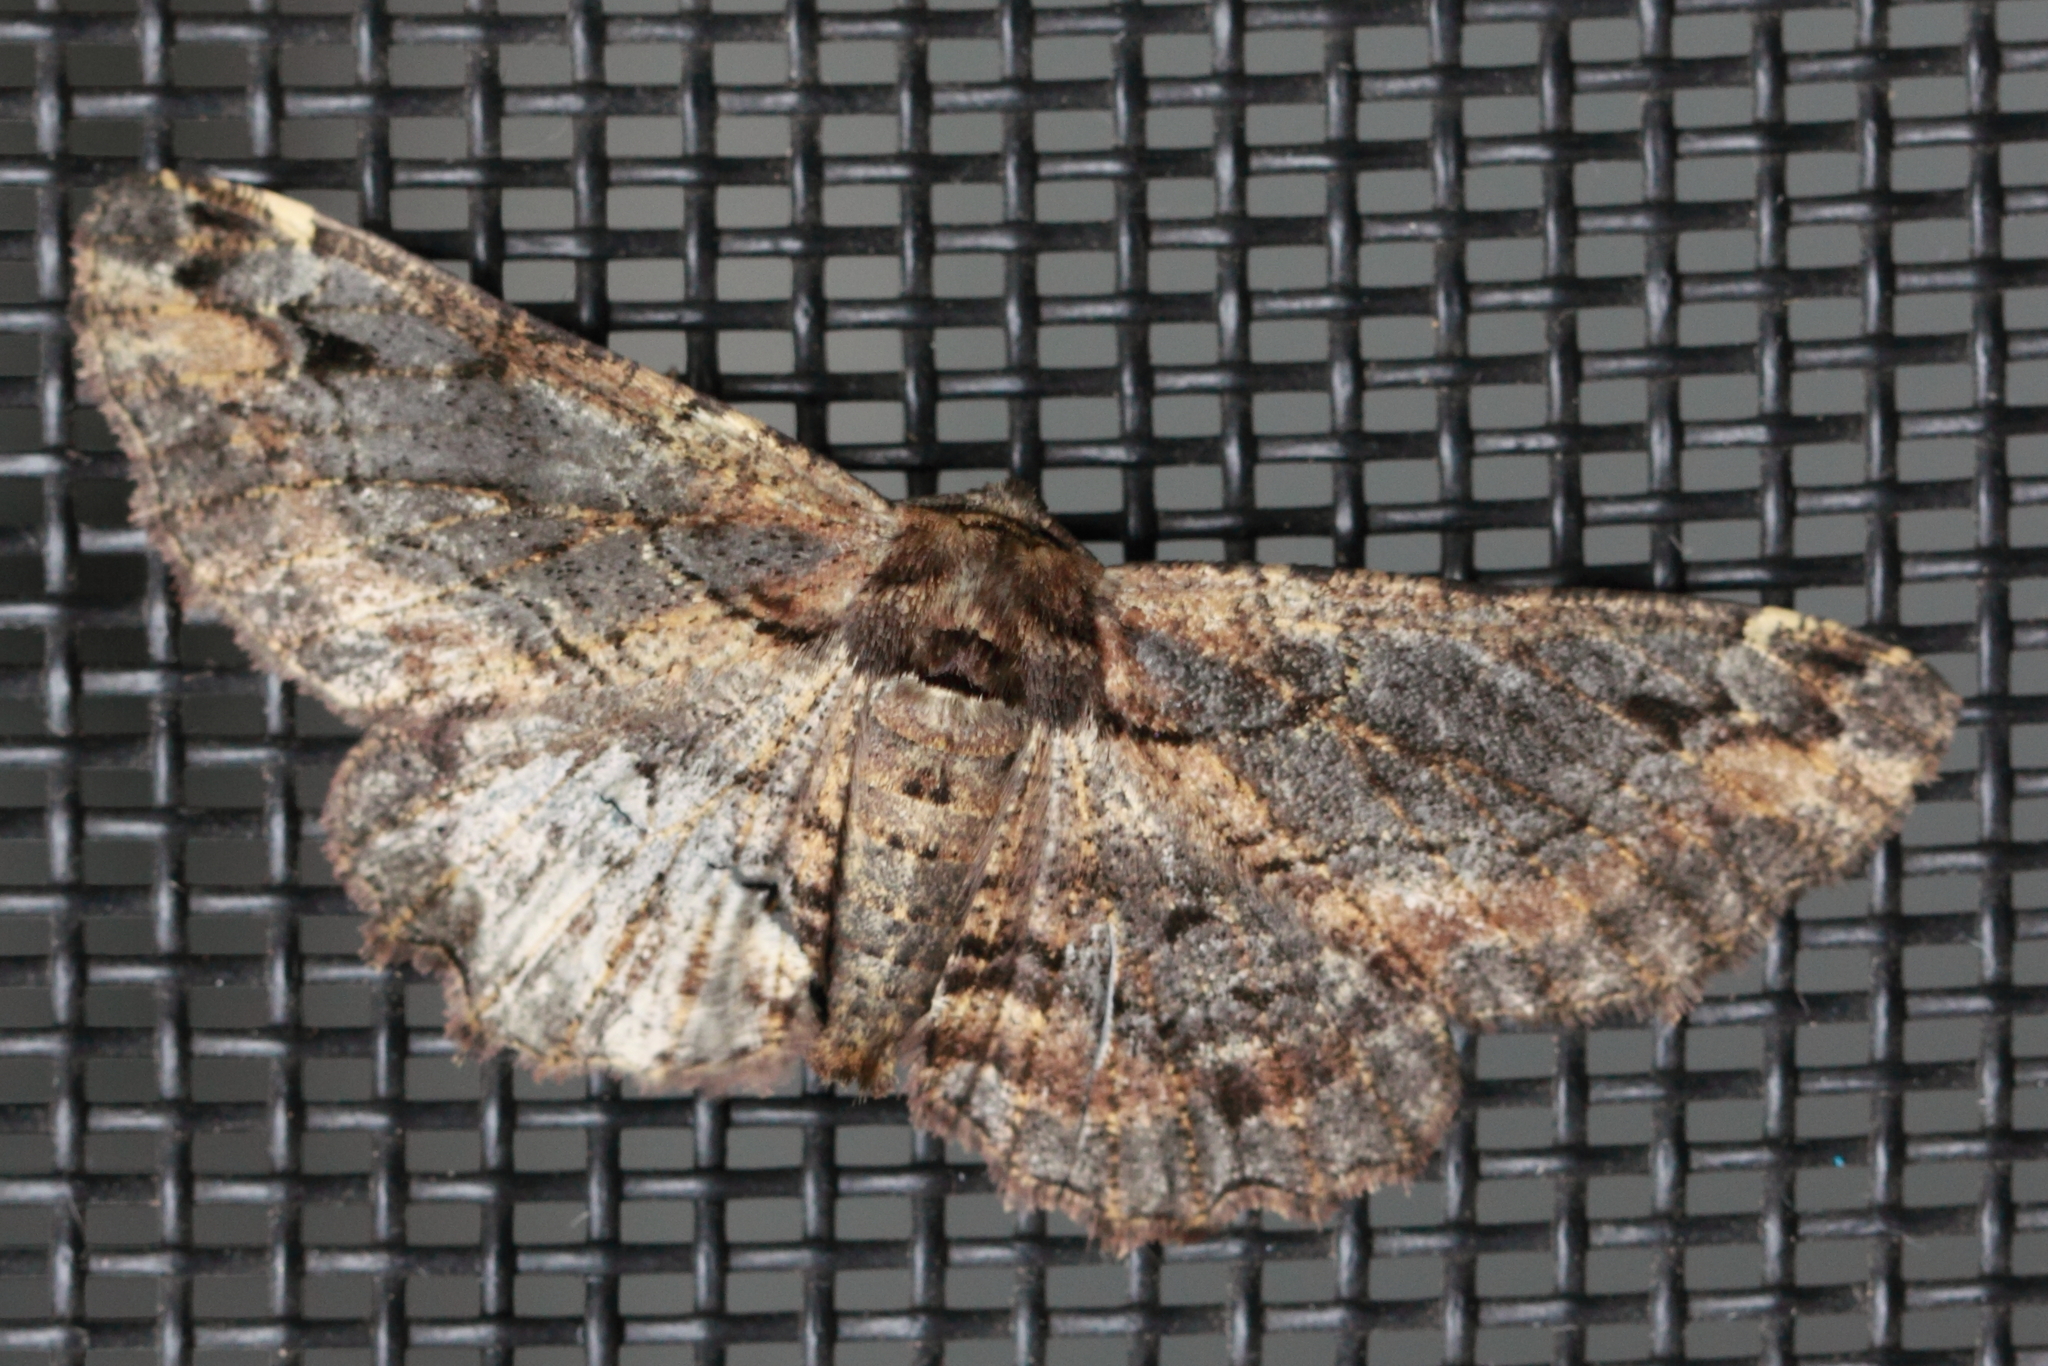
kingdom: Animalia
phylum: Arthropoda
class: Insecta
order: Lepidoptera
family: Geometridae
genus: Pholodes
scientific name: Pholodes sinistraria
